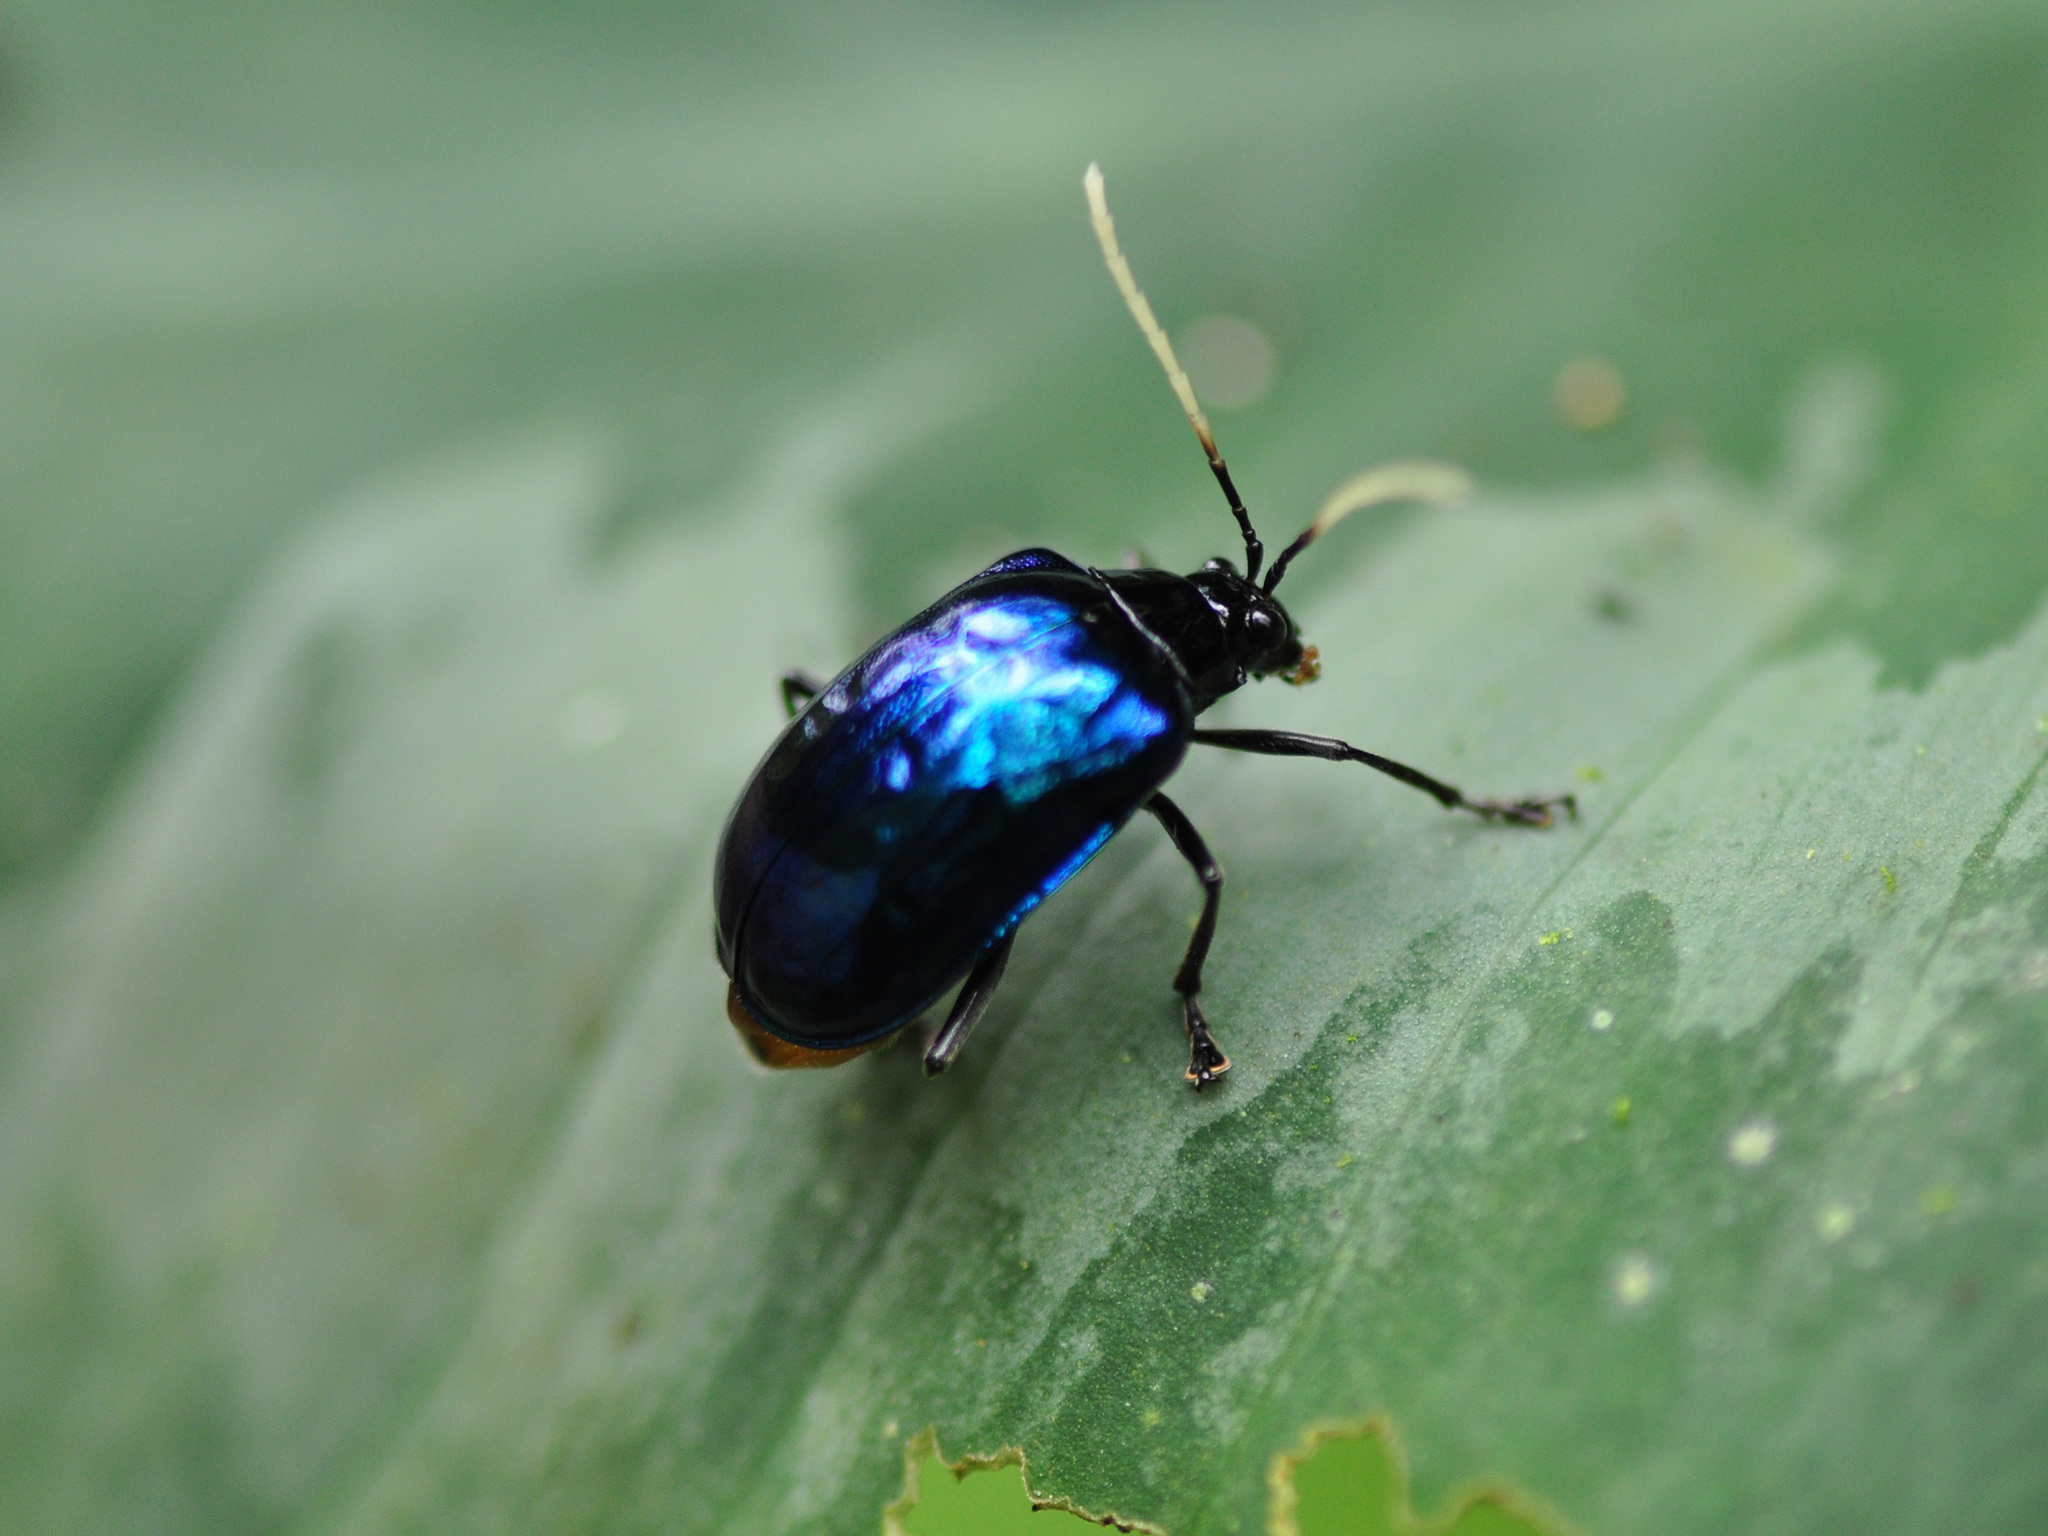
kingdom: Animalia
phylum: Arthropoda
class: Insecta
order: Coleoptera
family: Chrysomelidae
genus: Aplosonyx
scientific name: Aplosonyx
